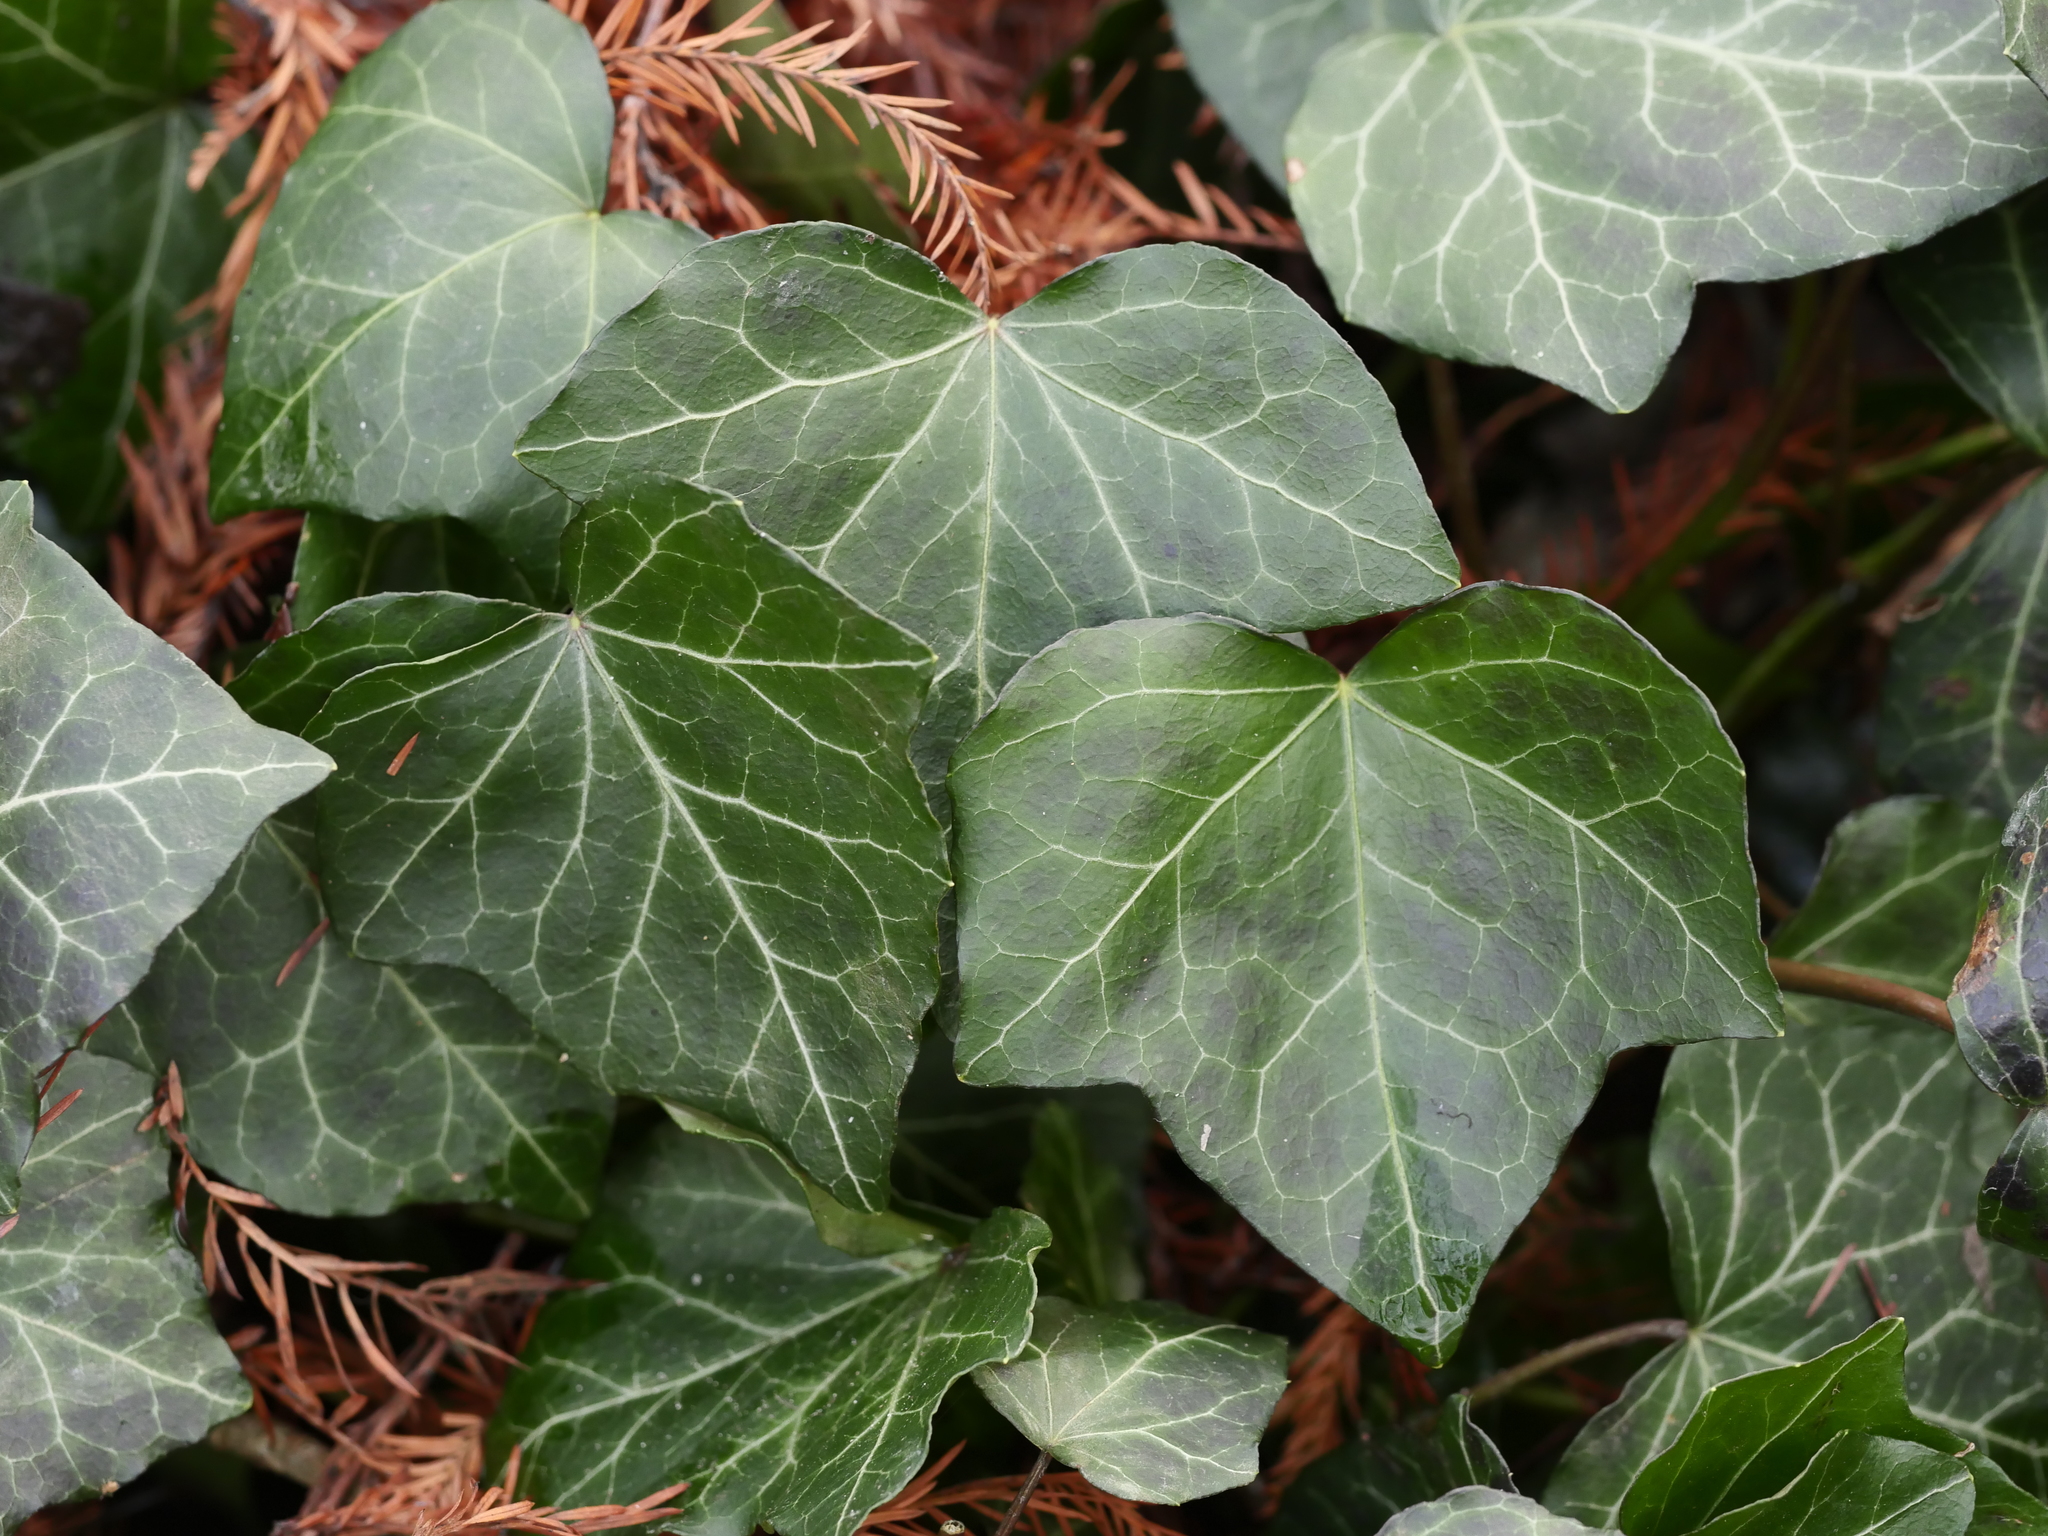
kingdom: Plantae
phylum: Tracheophyta
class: Magnoliopsida
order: Apiales
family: Araliaceae
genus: Hedera
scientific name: Hedera helix
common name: Ivy
